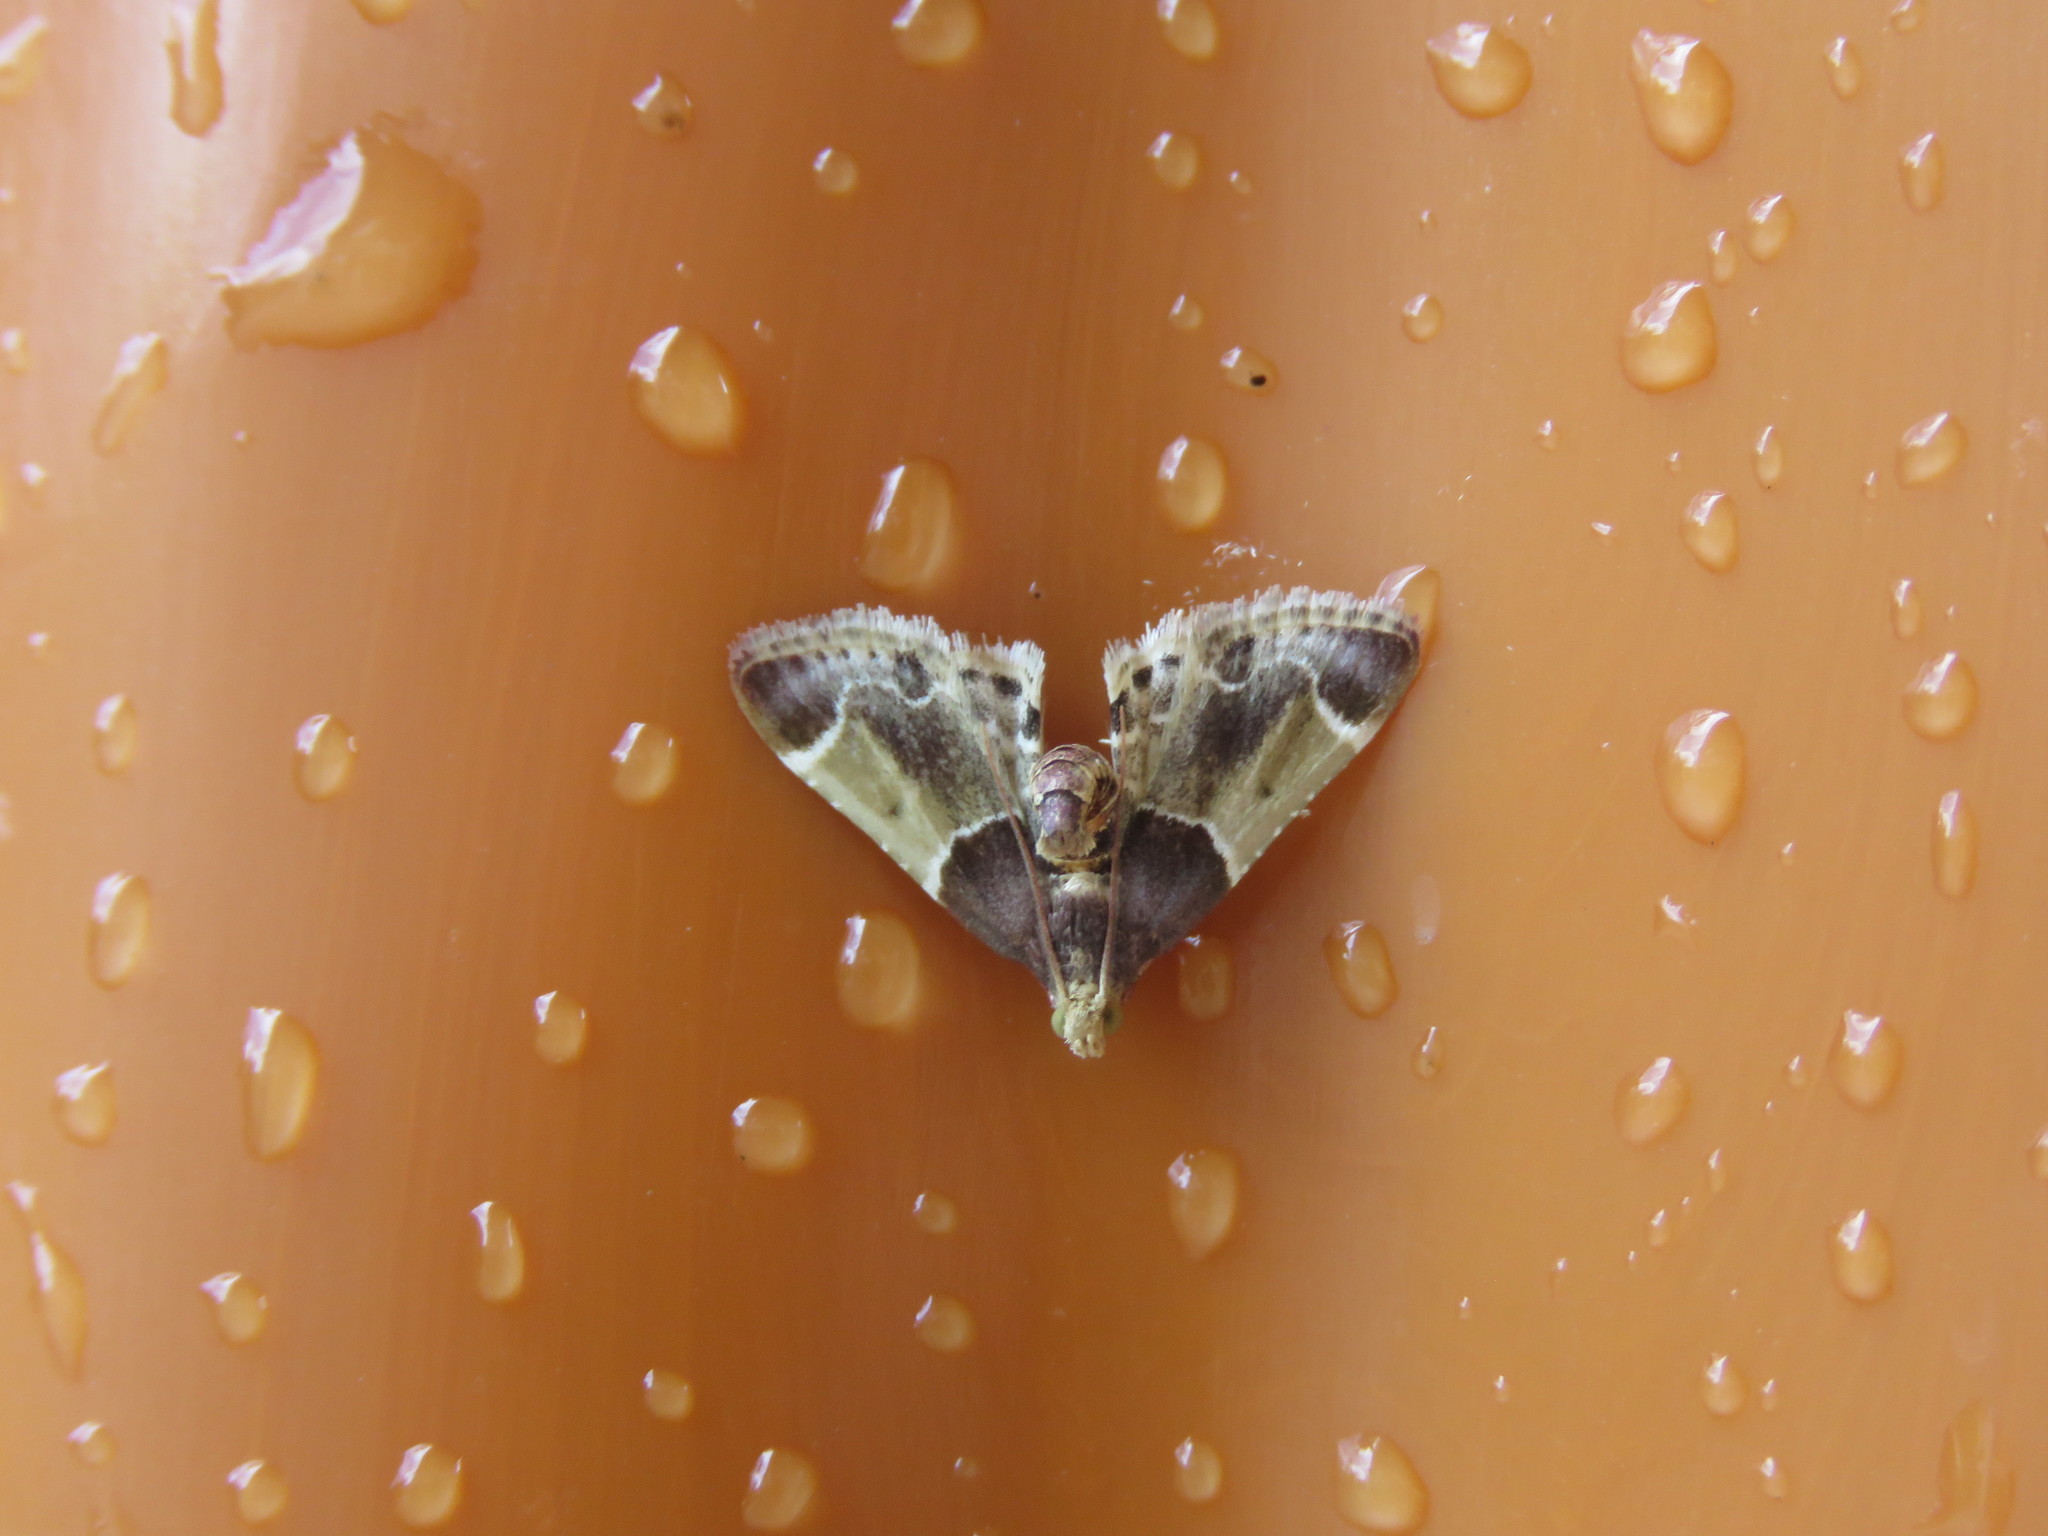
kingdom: Animalia
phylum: Arthropoda
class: Insecta
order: Lepidoptera
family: Pyralidae
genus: Pyralis
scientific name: Pyralis farinalis
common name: Meal moth
